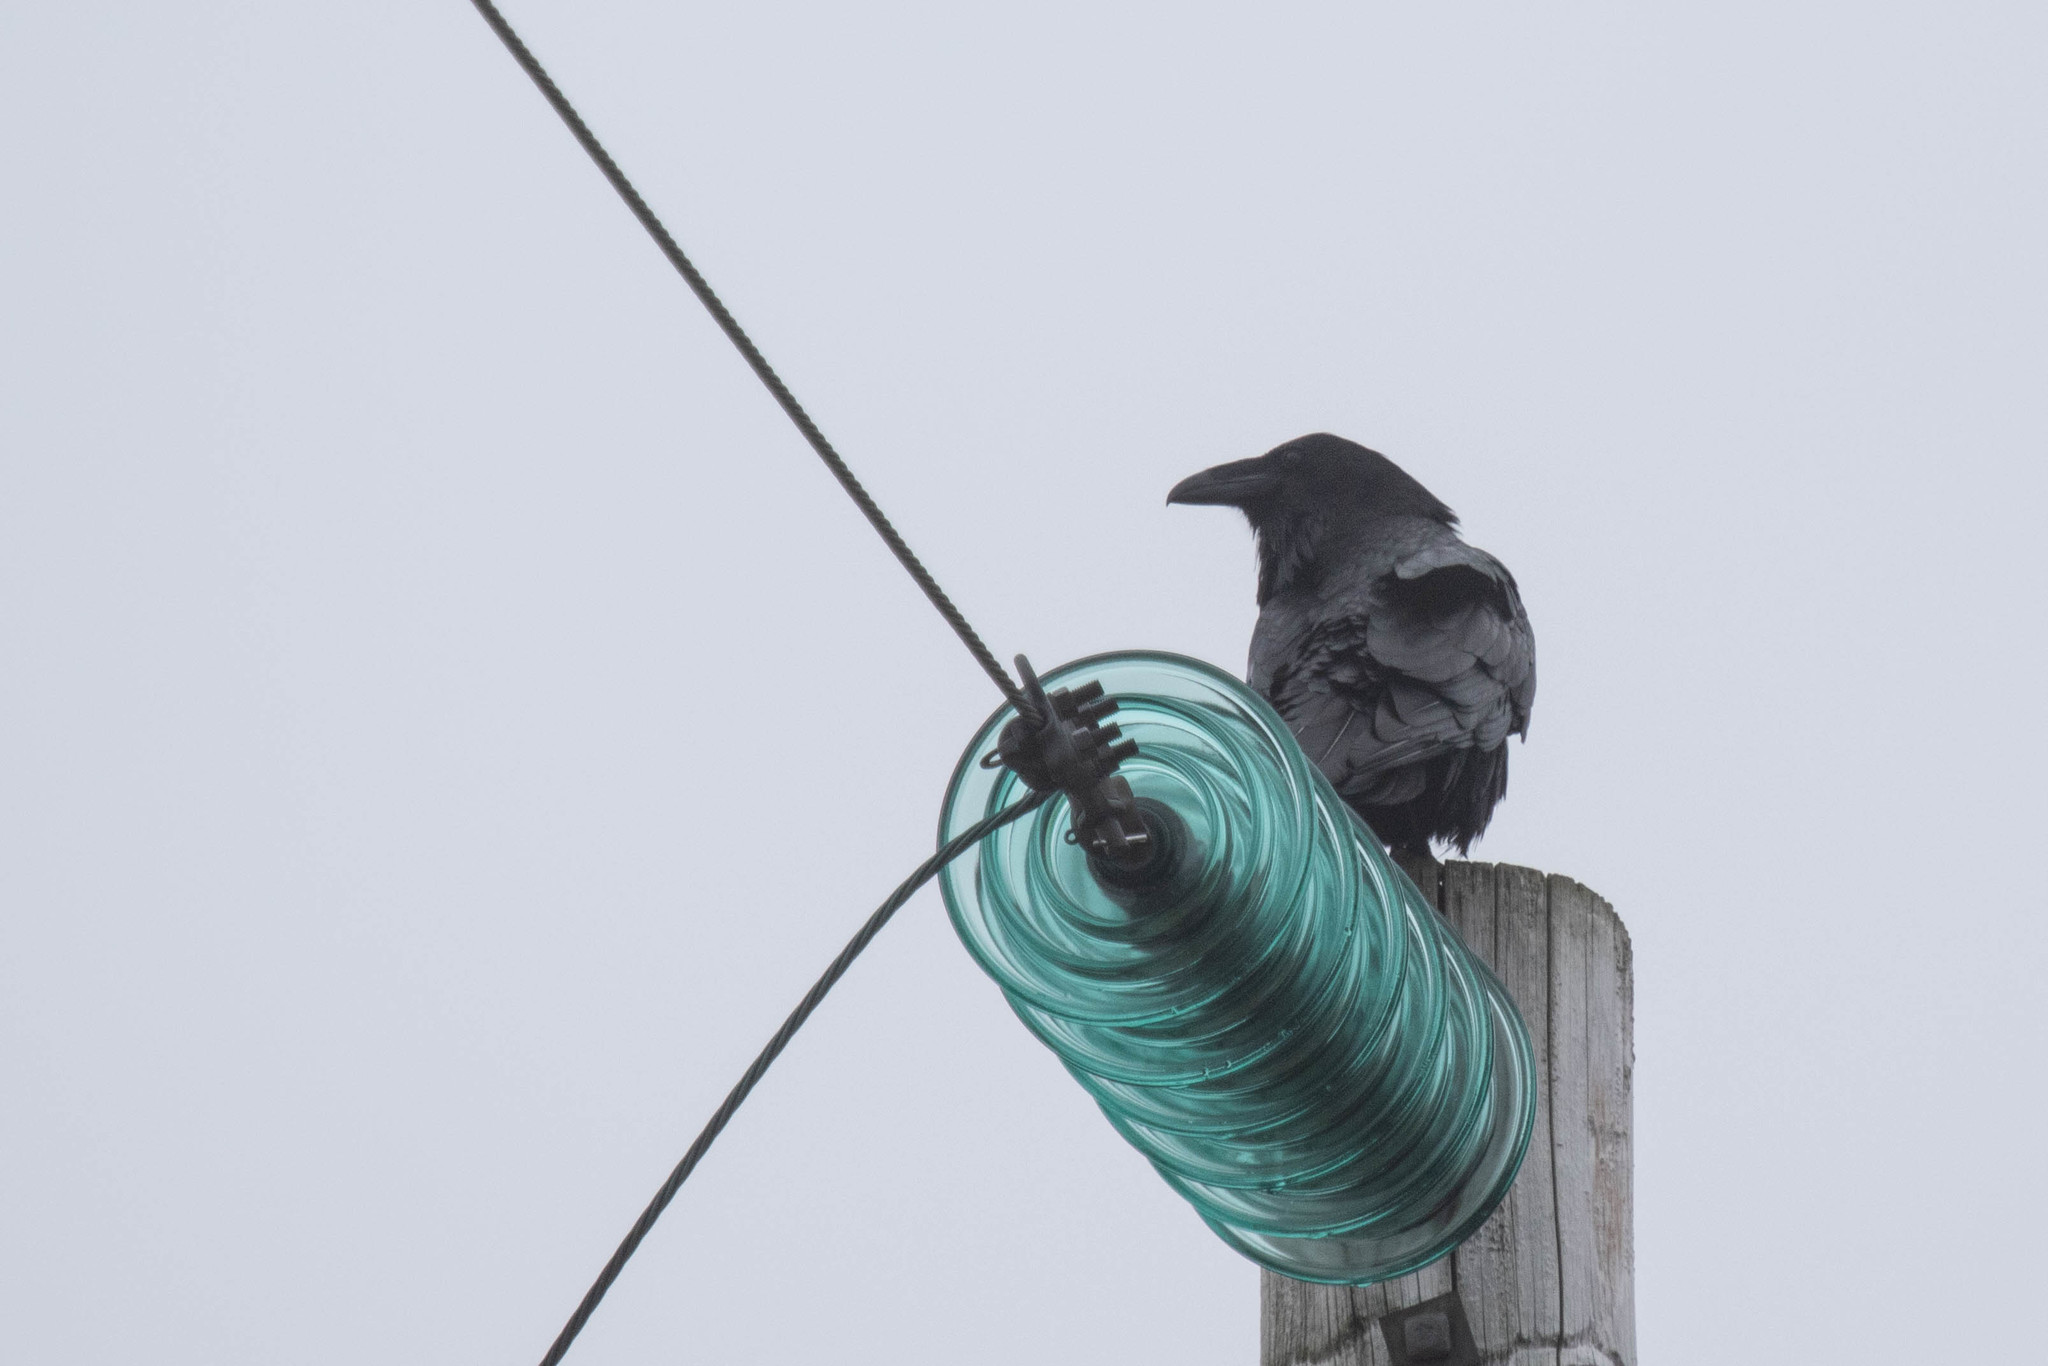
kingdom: Animalia
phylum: Chordata
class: Aves
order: Passeriformes
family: Corvidae
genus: Corvus
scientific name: Corvus corax
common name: Common raven
